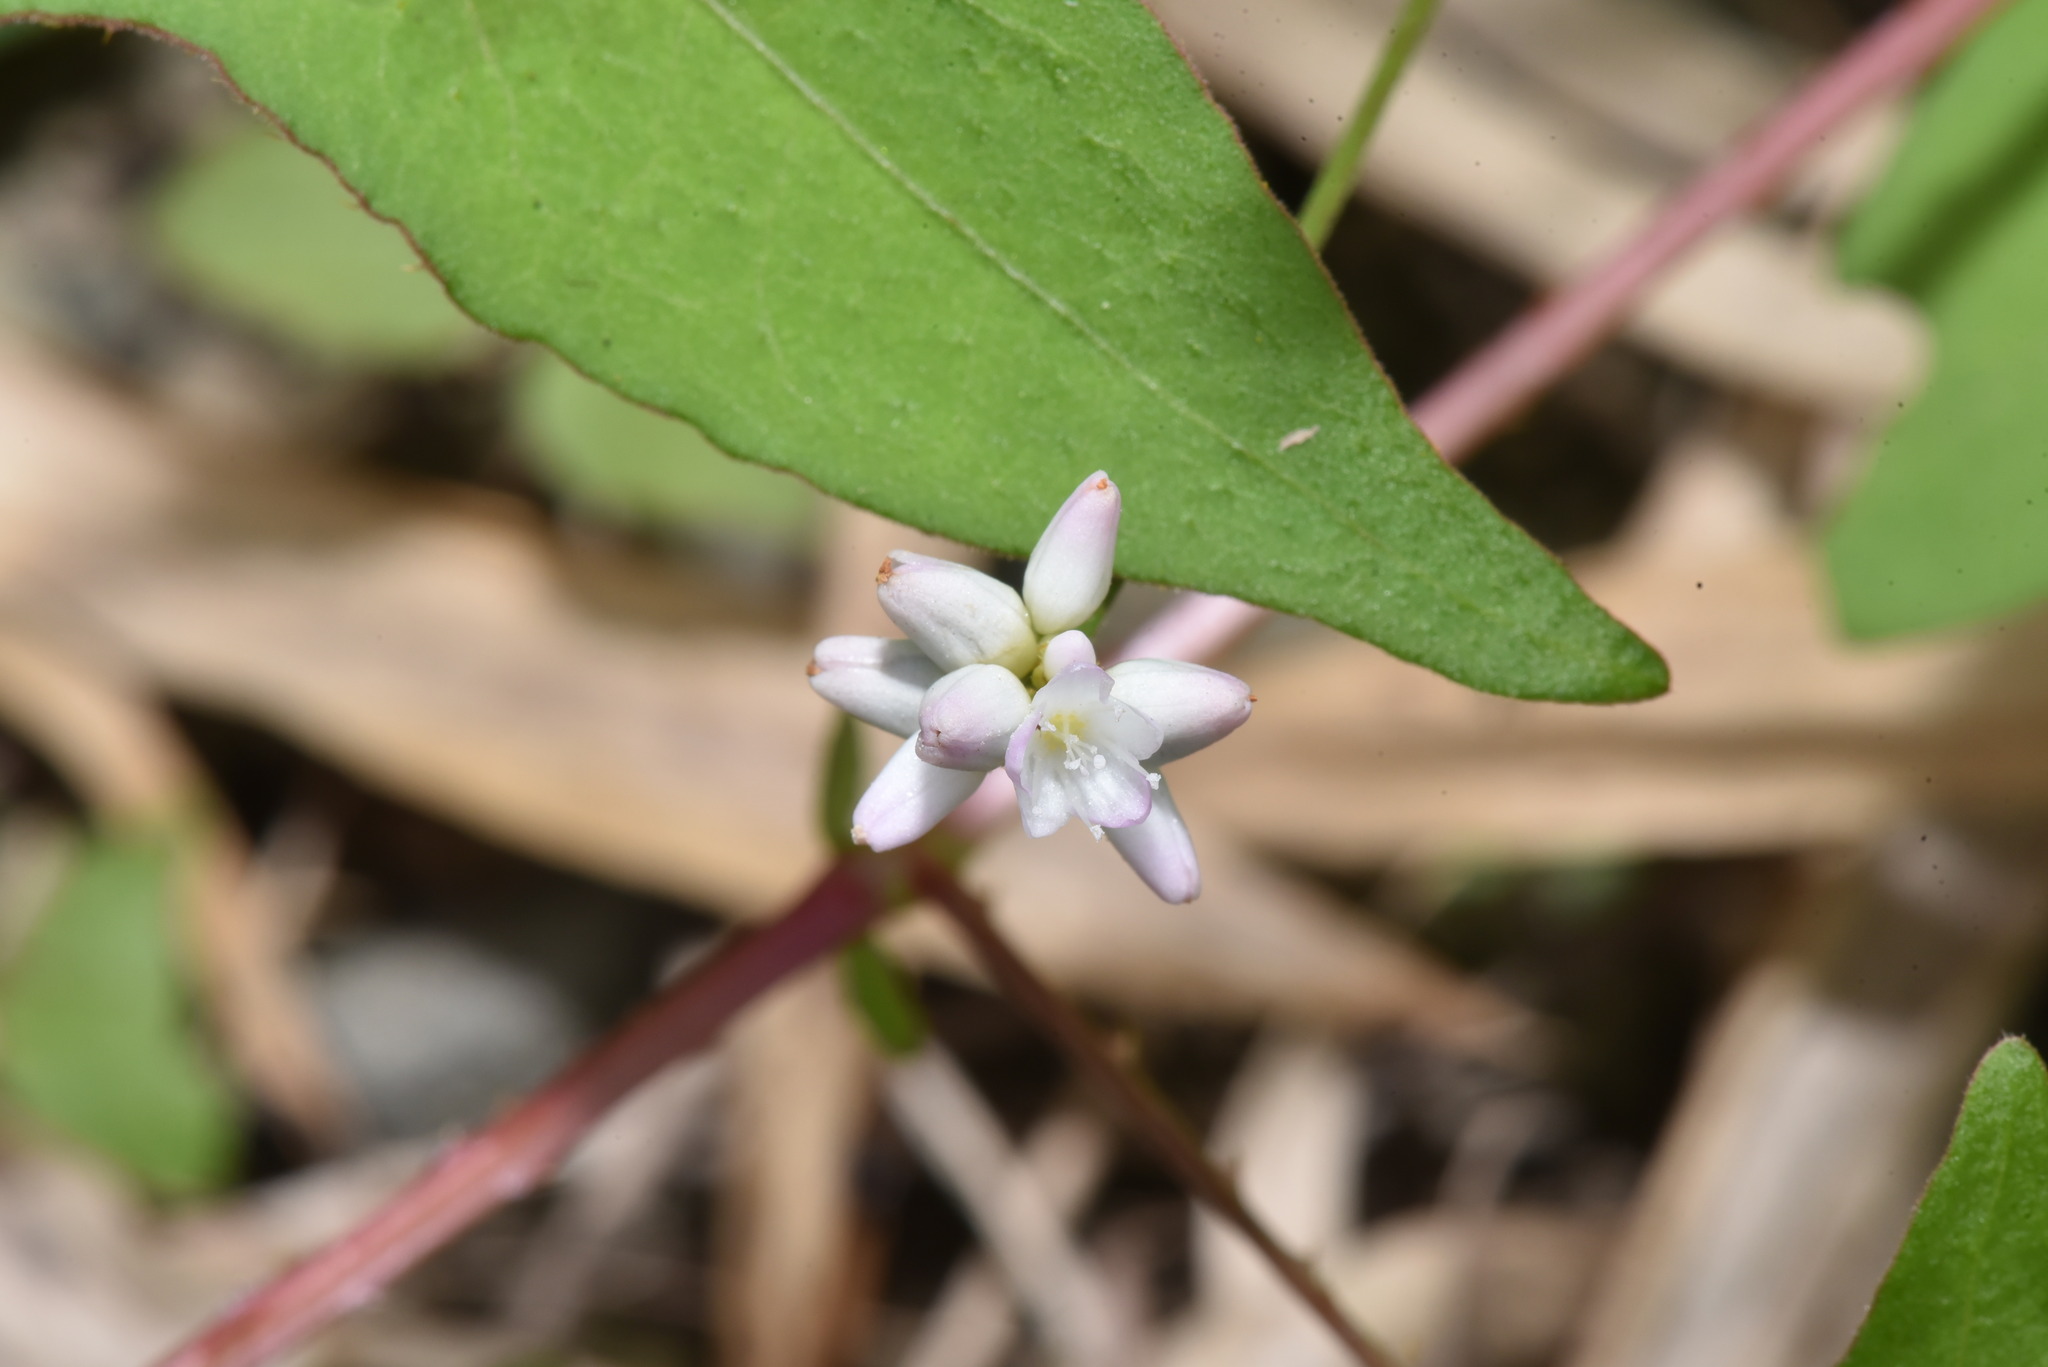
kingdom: Plantae
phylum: Tracheophyta
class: Magnoliopsida
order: Caryophyllales
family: Polygonaceae
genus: Persicaria
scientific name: Persicaria senticosa
